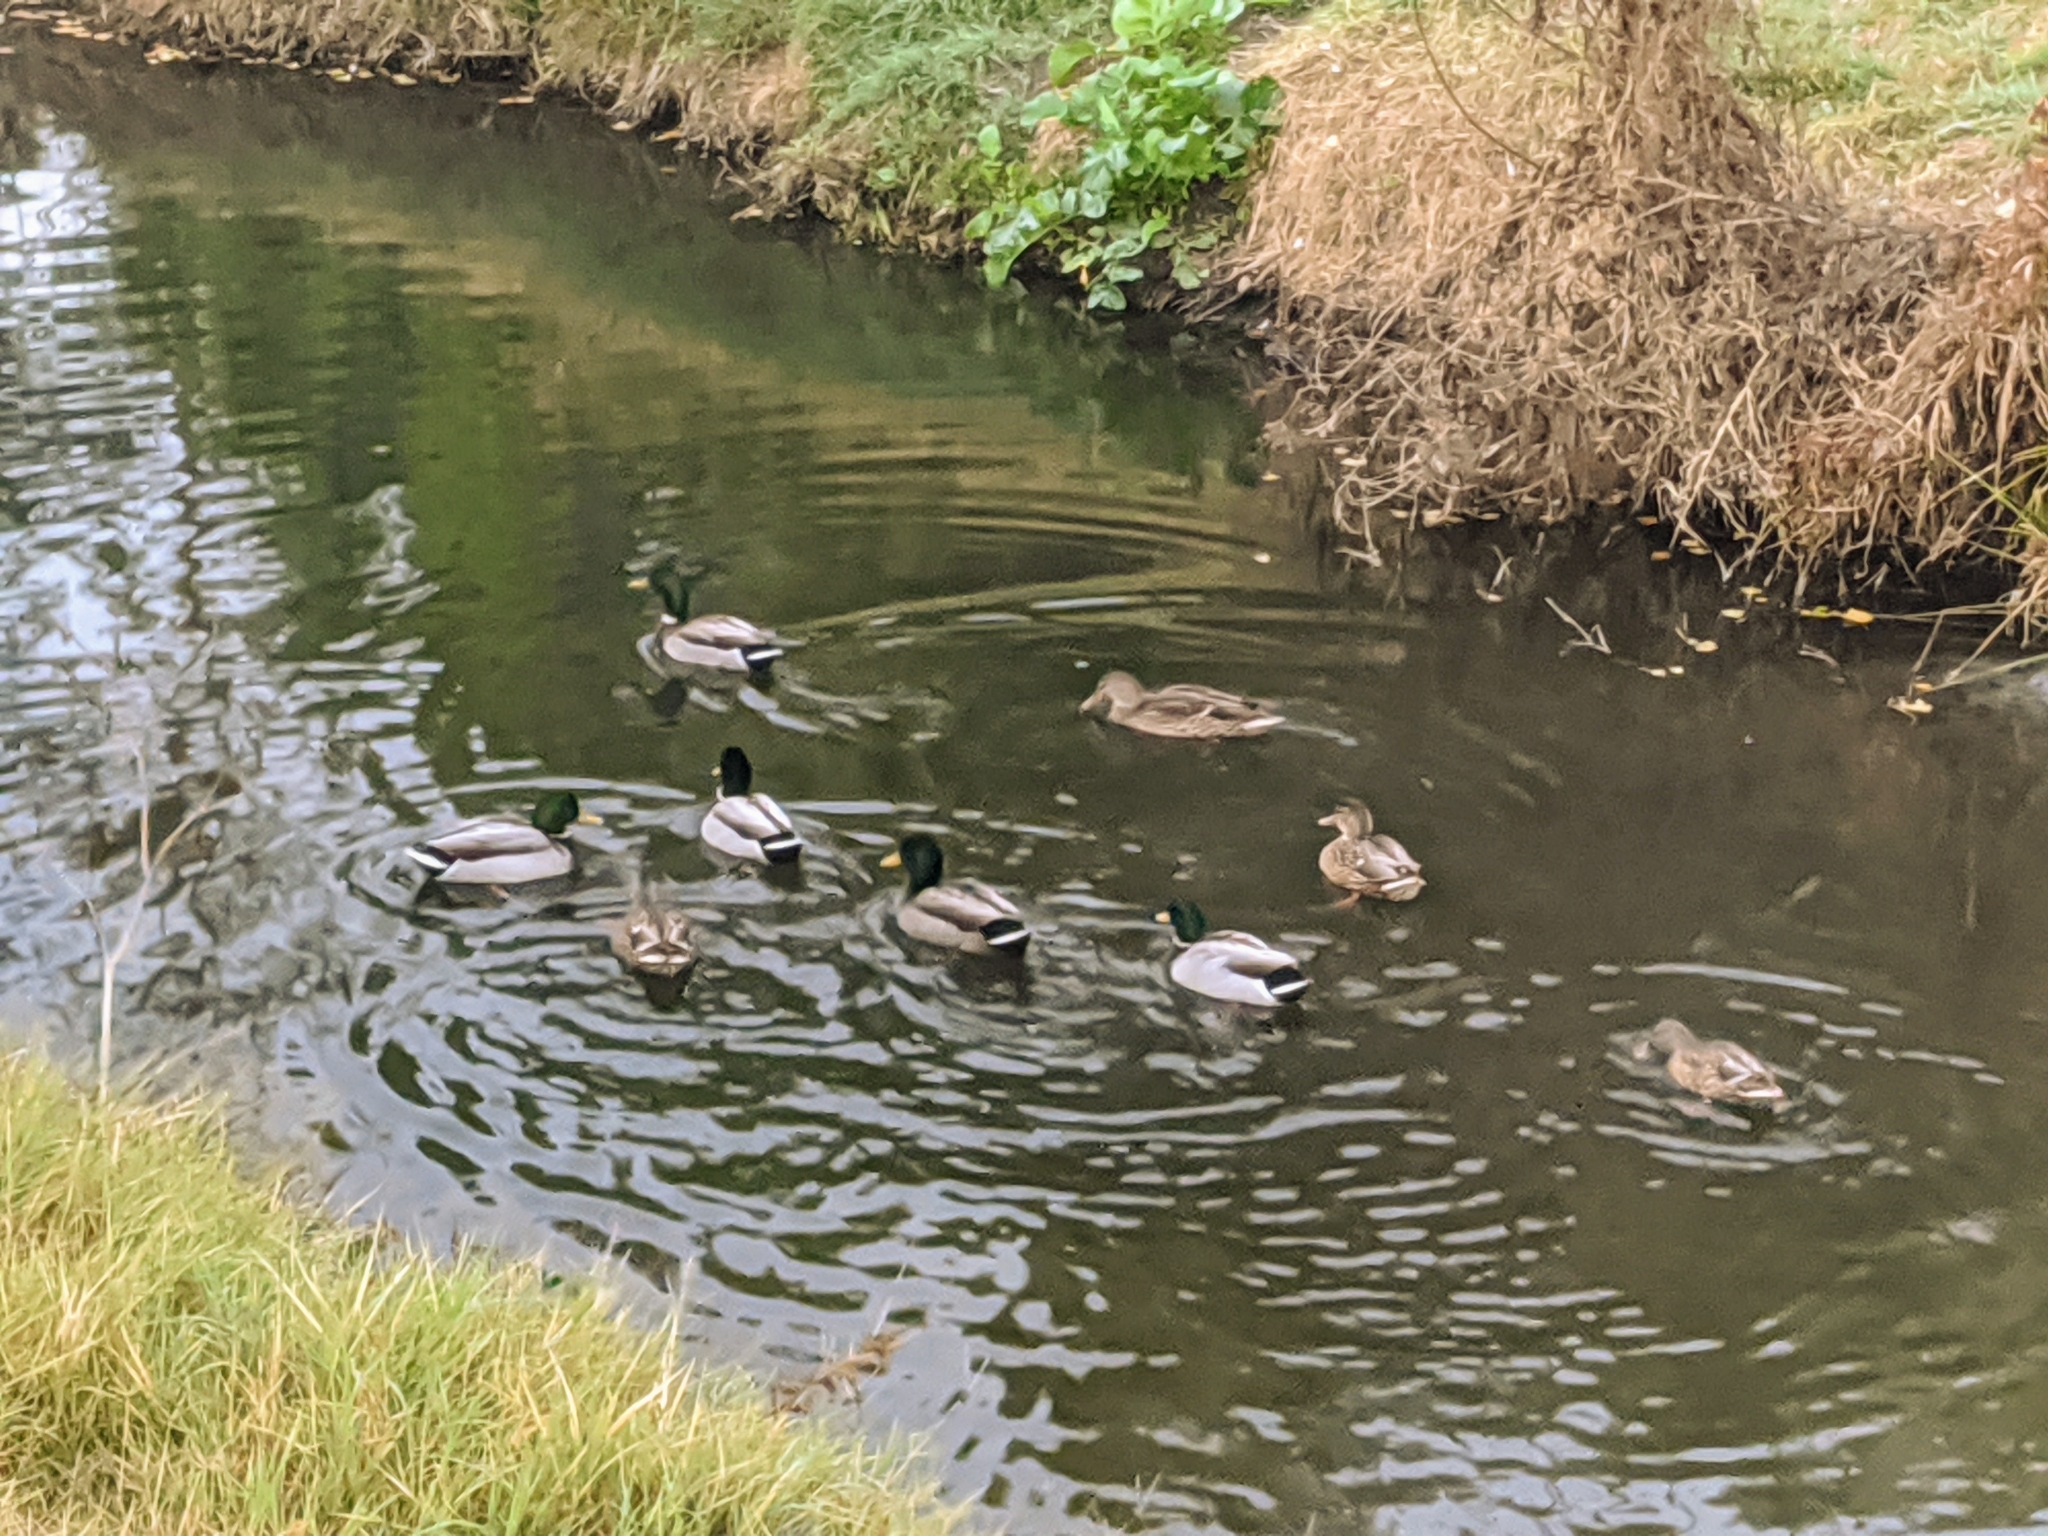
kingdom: Animalia
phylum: Chordata
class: Aves
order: Anseriformes
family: Anatidae
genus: Anas
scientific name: Anas platyrhynchos
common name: Mallard
